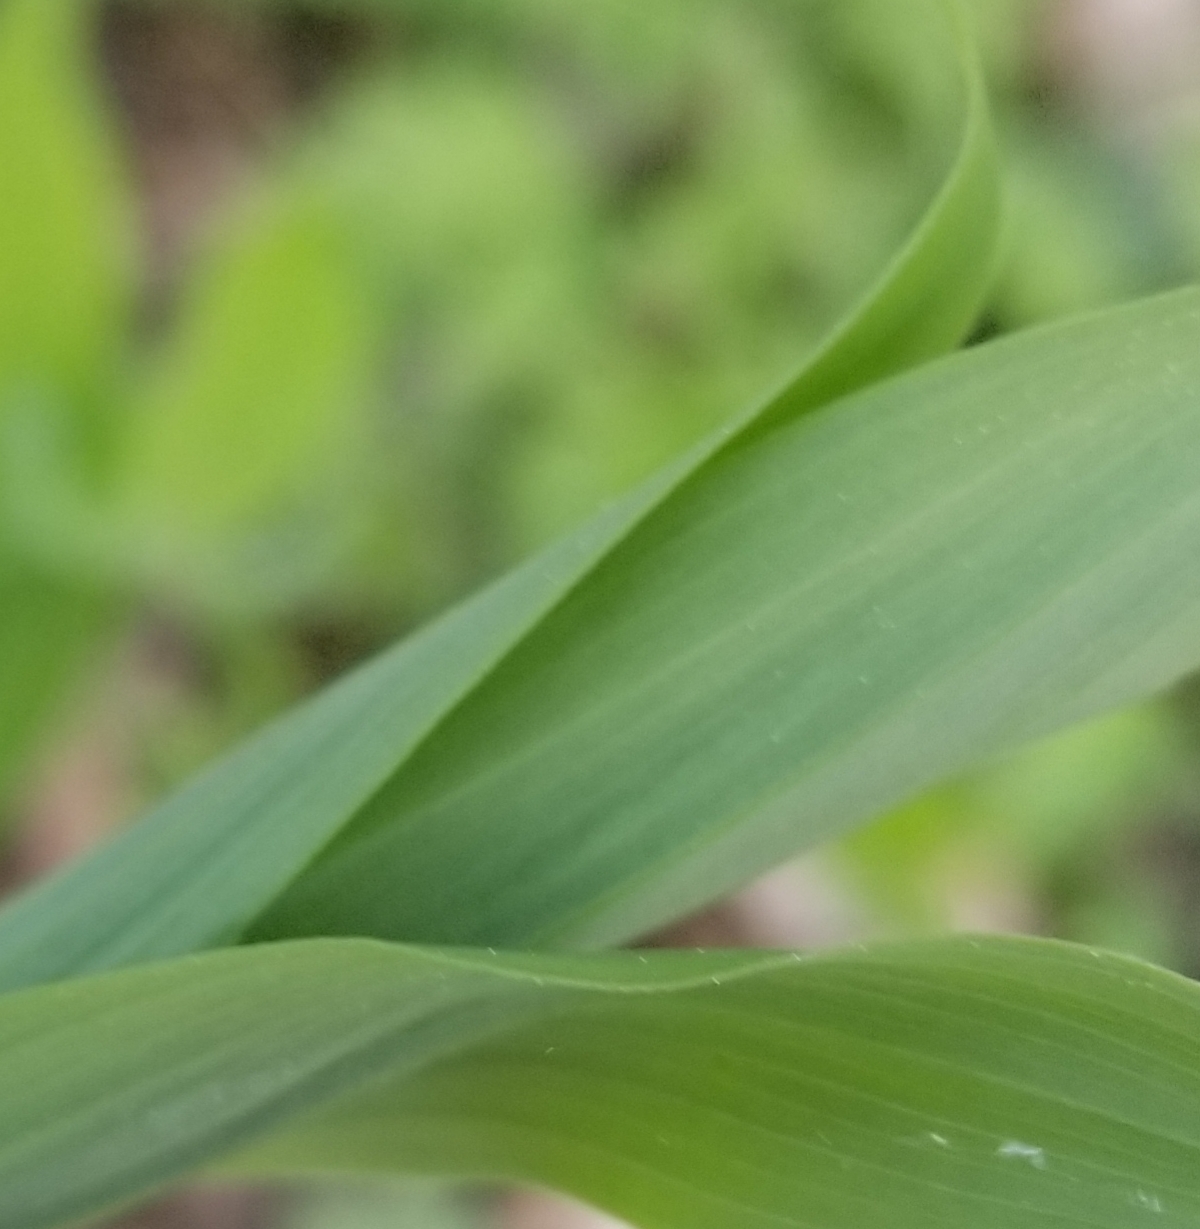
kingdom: Plantae
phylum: Tracheophyta
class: Liliopsida
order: Asparagales
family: Asparagaceae
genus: Polygonatum
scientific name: Polygonatum biflorum
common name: American solomon's-seal
